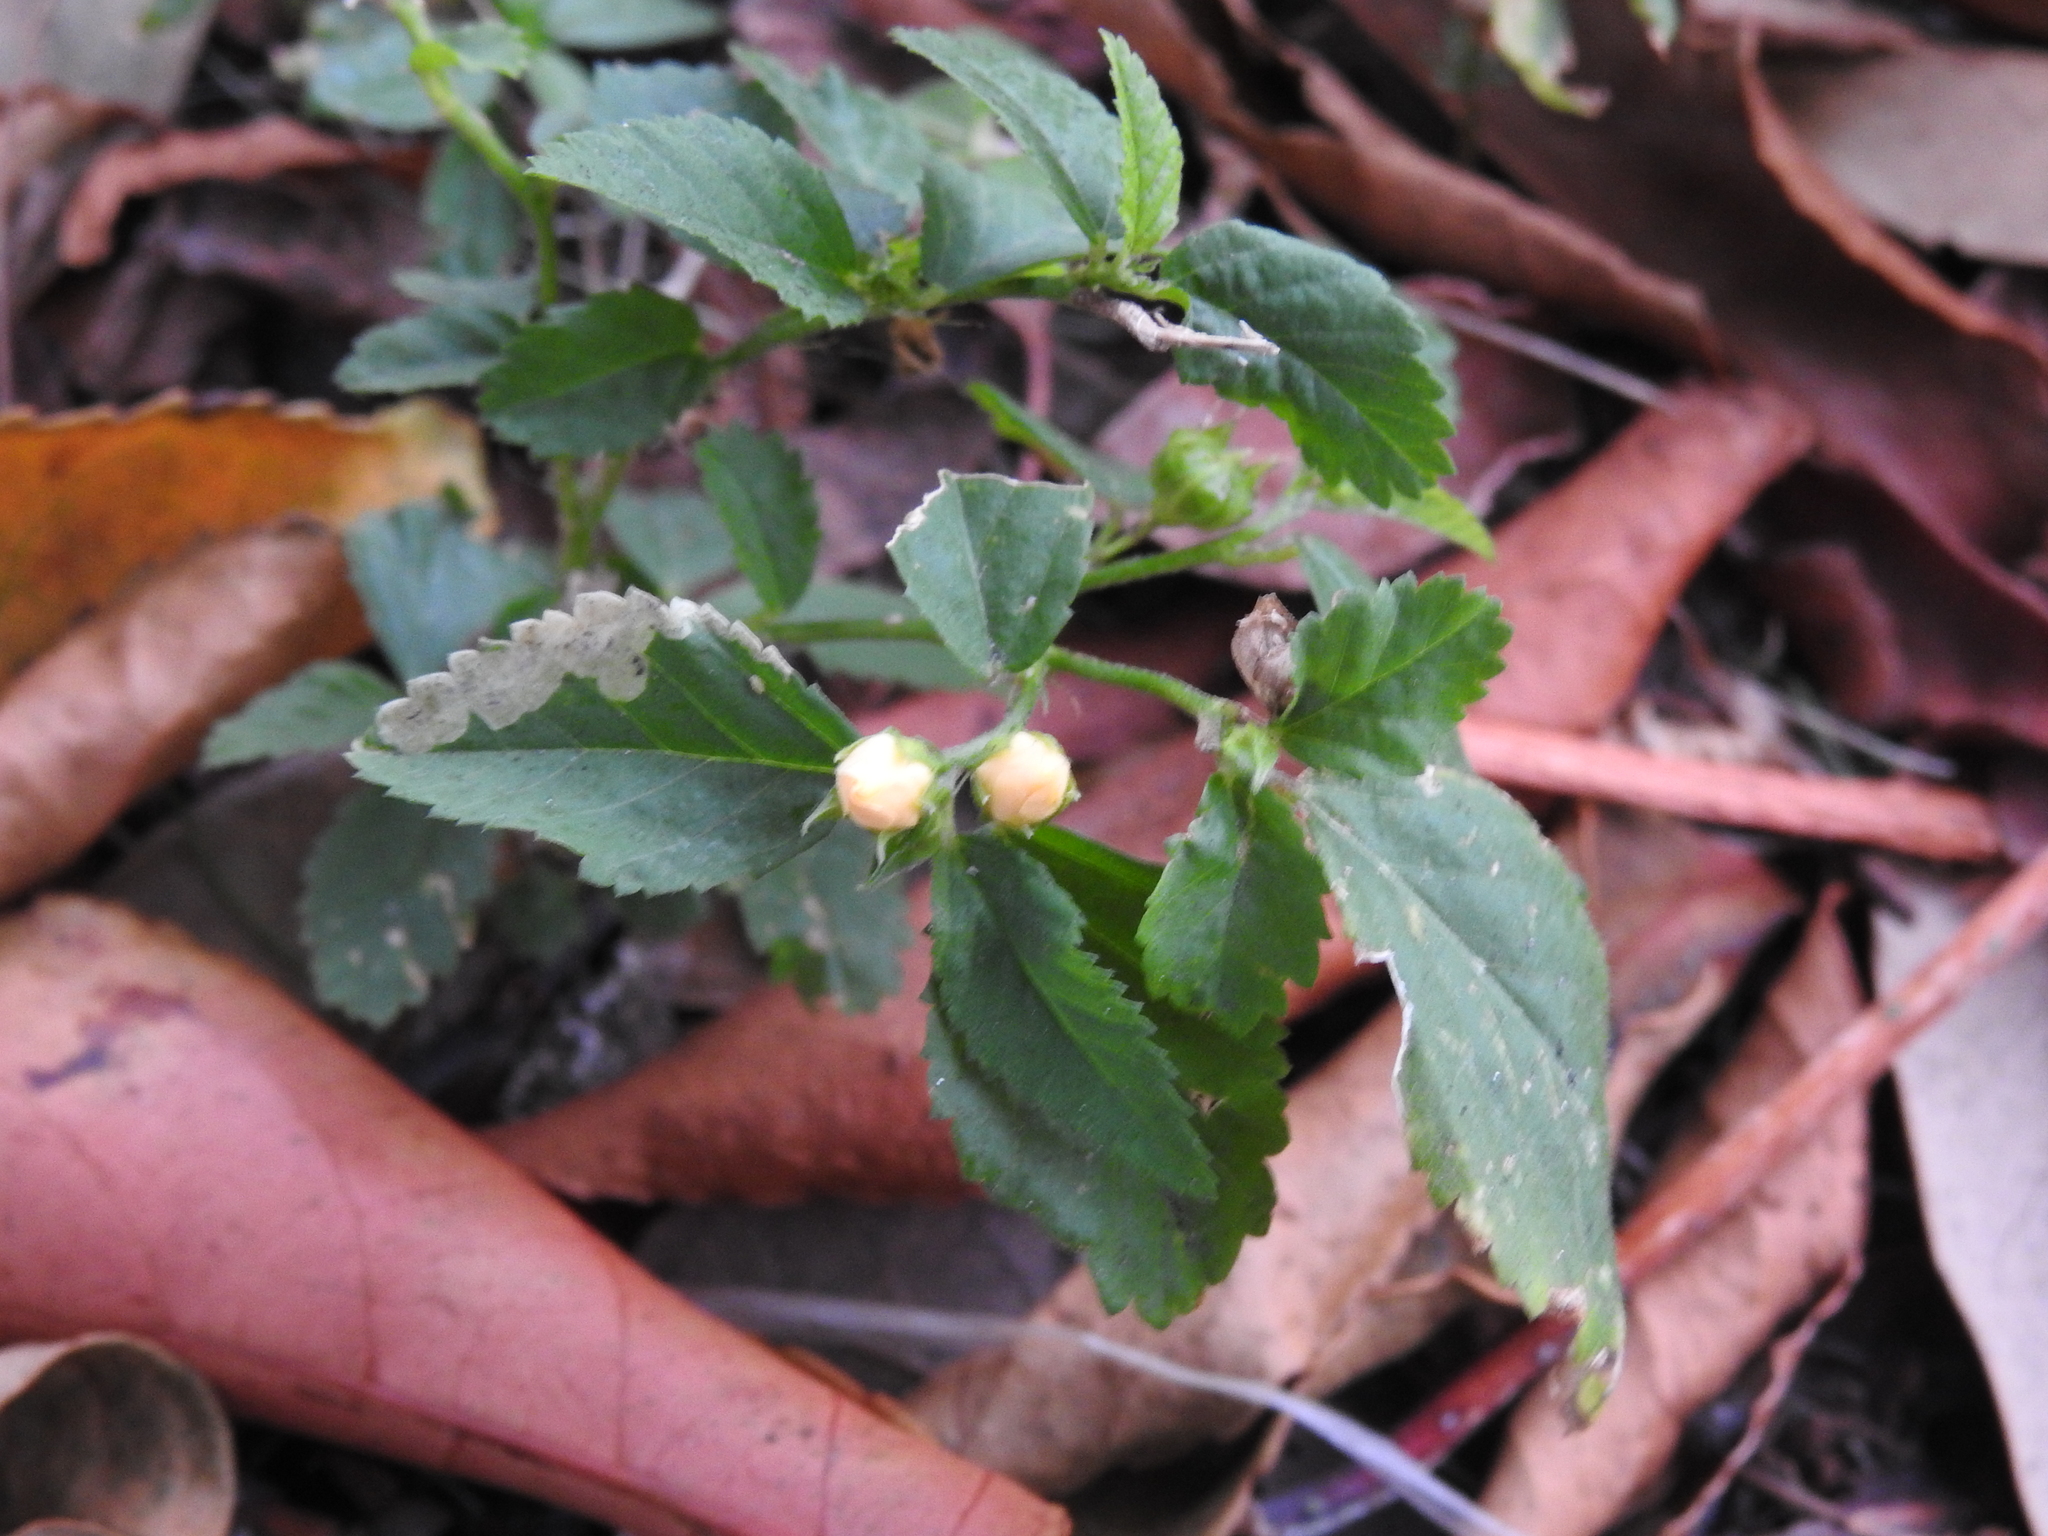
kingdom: Plantae
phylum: Tracheophyta
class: Magnoliopsida
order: Malvales
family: Malvaceae
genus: Sida
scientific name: Sida ulmifolia
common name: Broom weed
